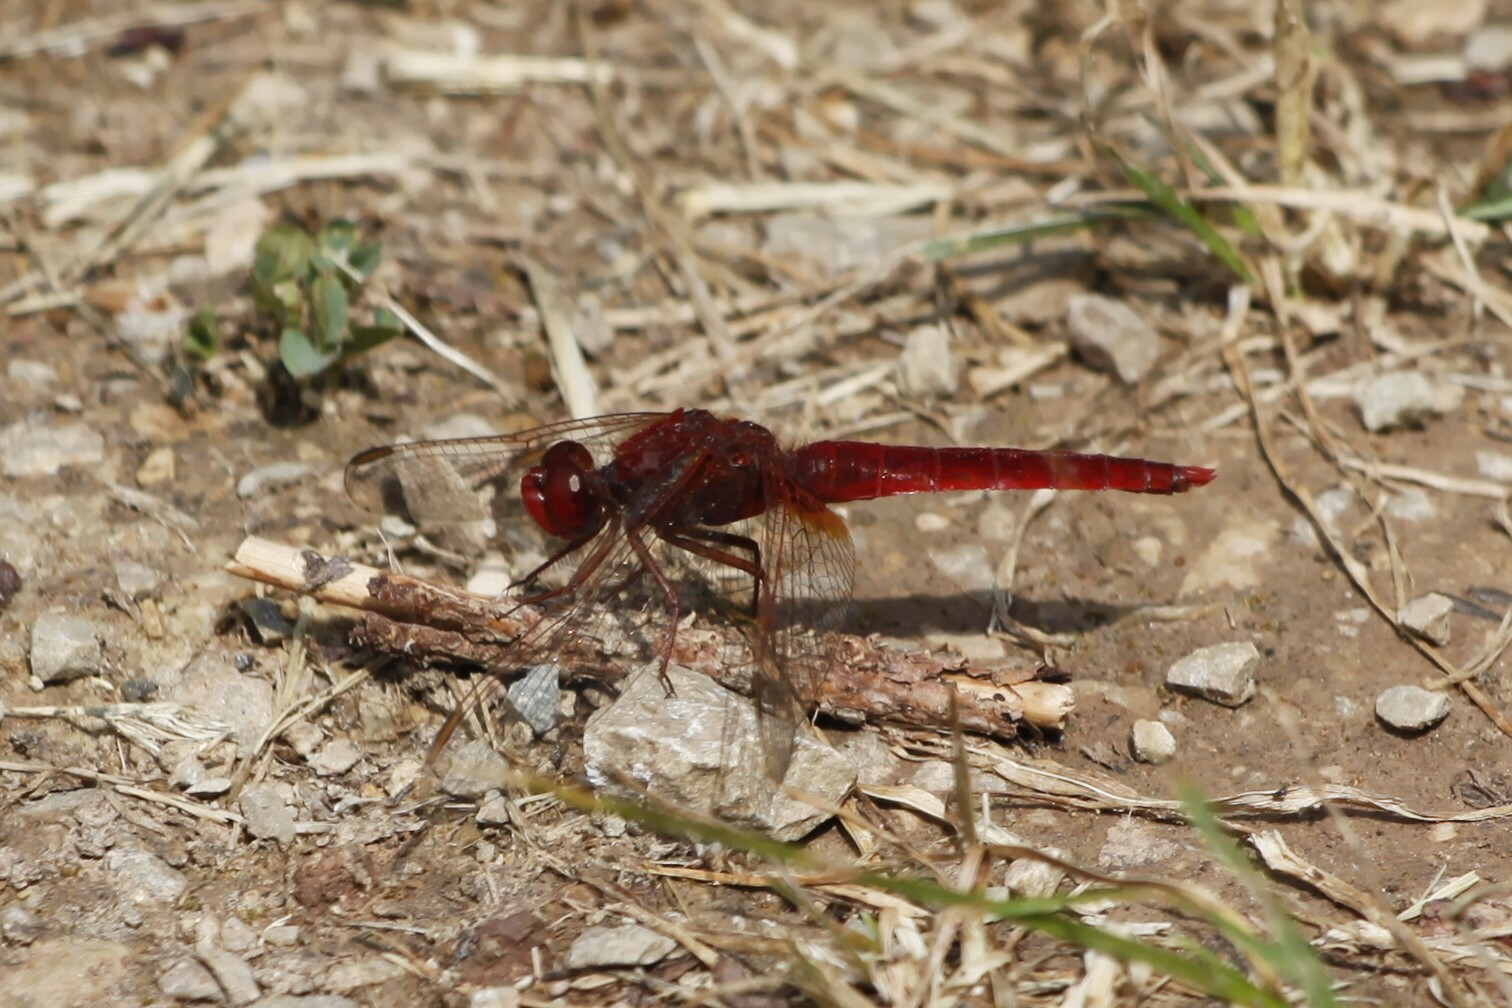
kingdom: Animalia
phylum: Arthropoda
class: Insecta
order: Odonata
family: Libellulidae
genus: Crocothemis
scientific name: Crocothemis erythraea
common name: Scarlet dragonfly
